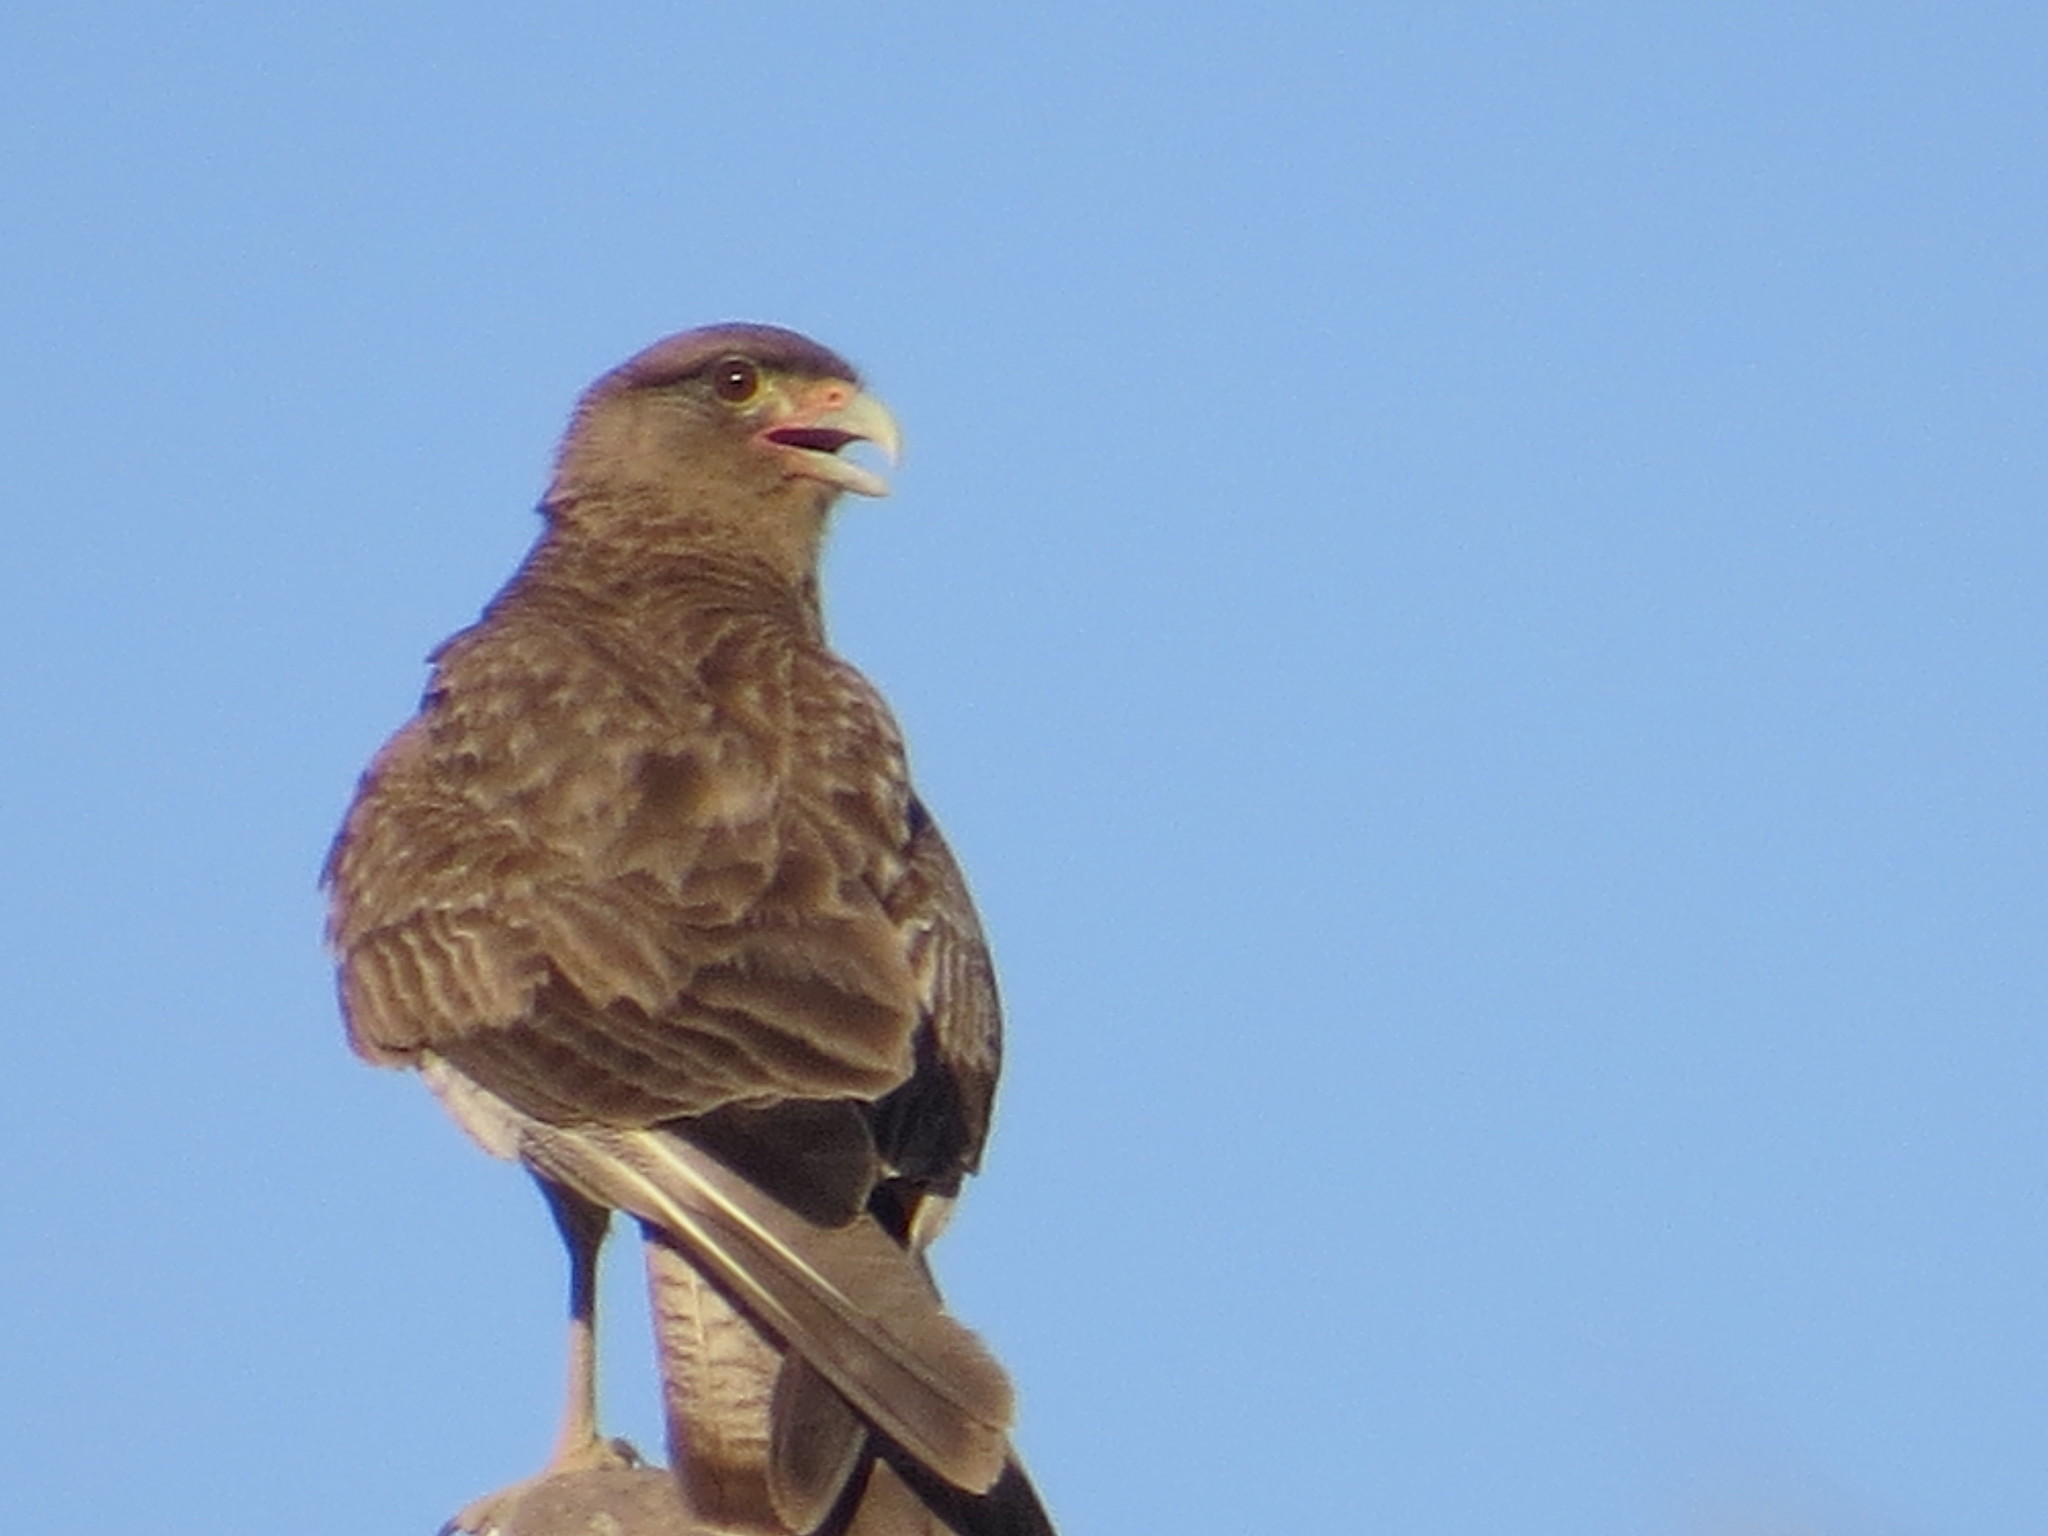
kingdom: Animalia
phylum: Chordata
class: Aves
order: Falconiformes
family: Falconidae
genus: Daptrius
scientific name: Daptrius
